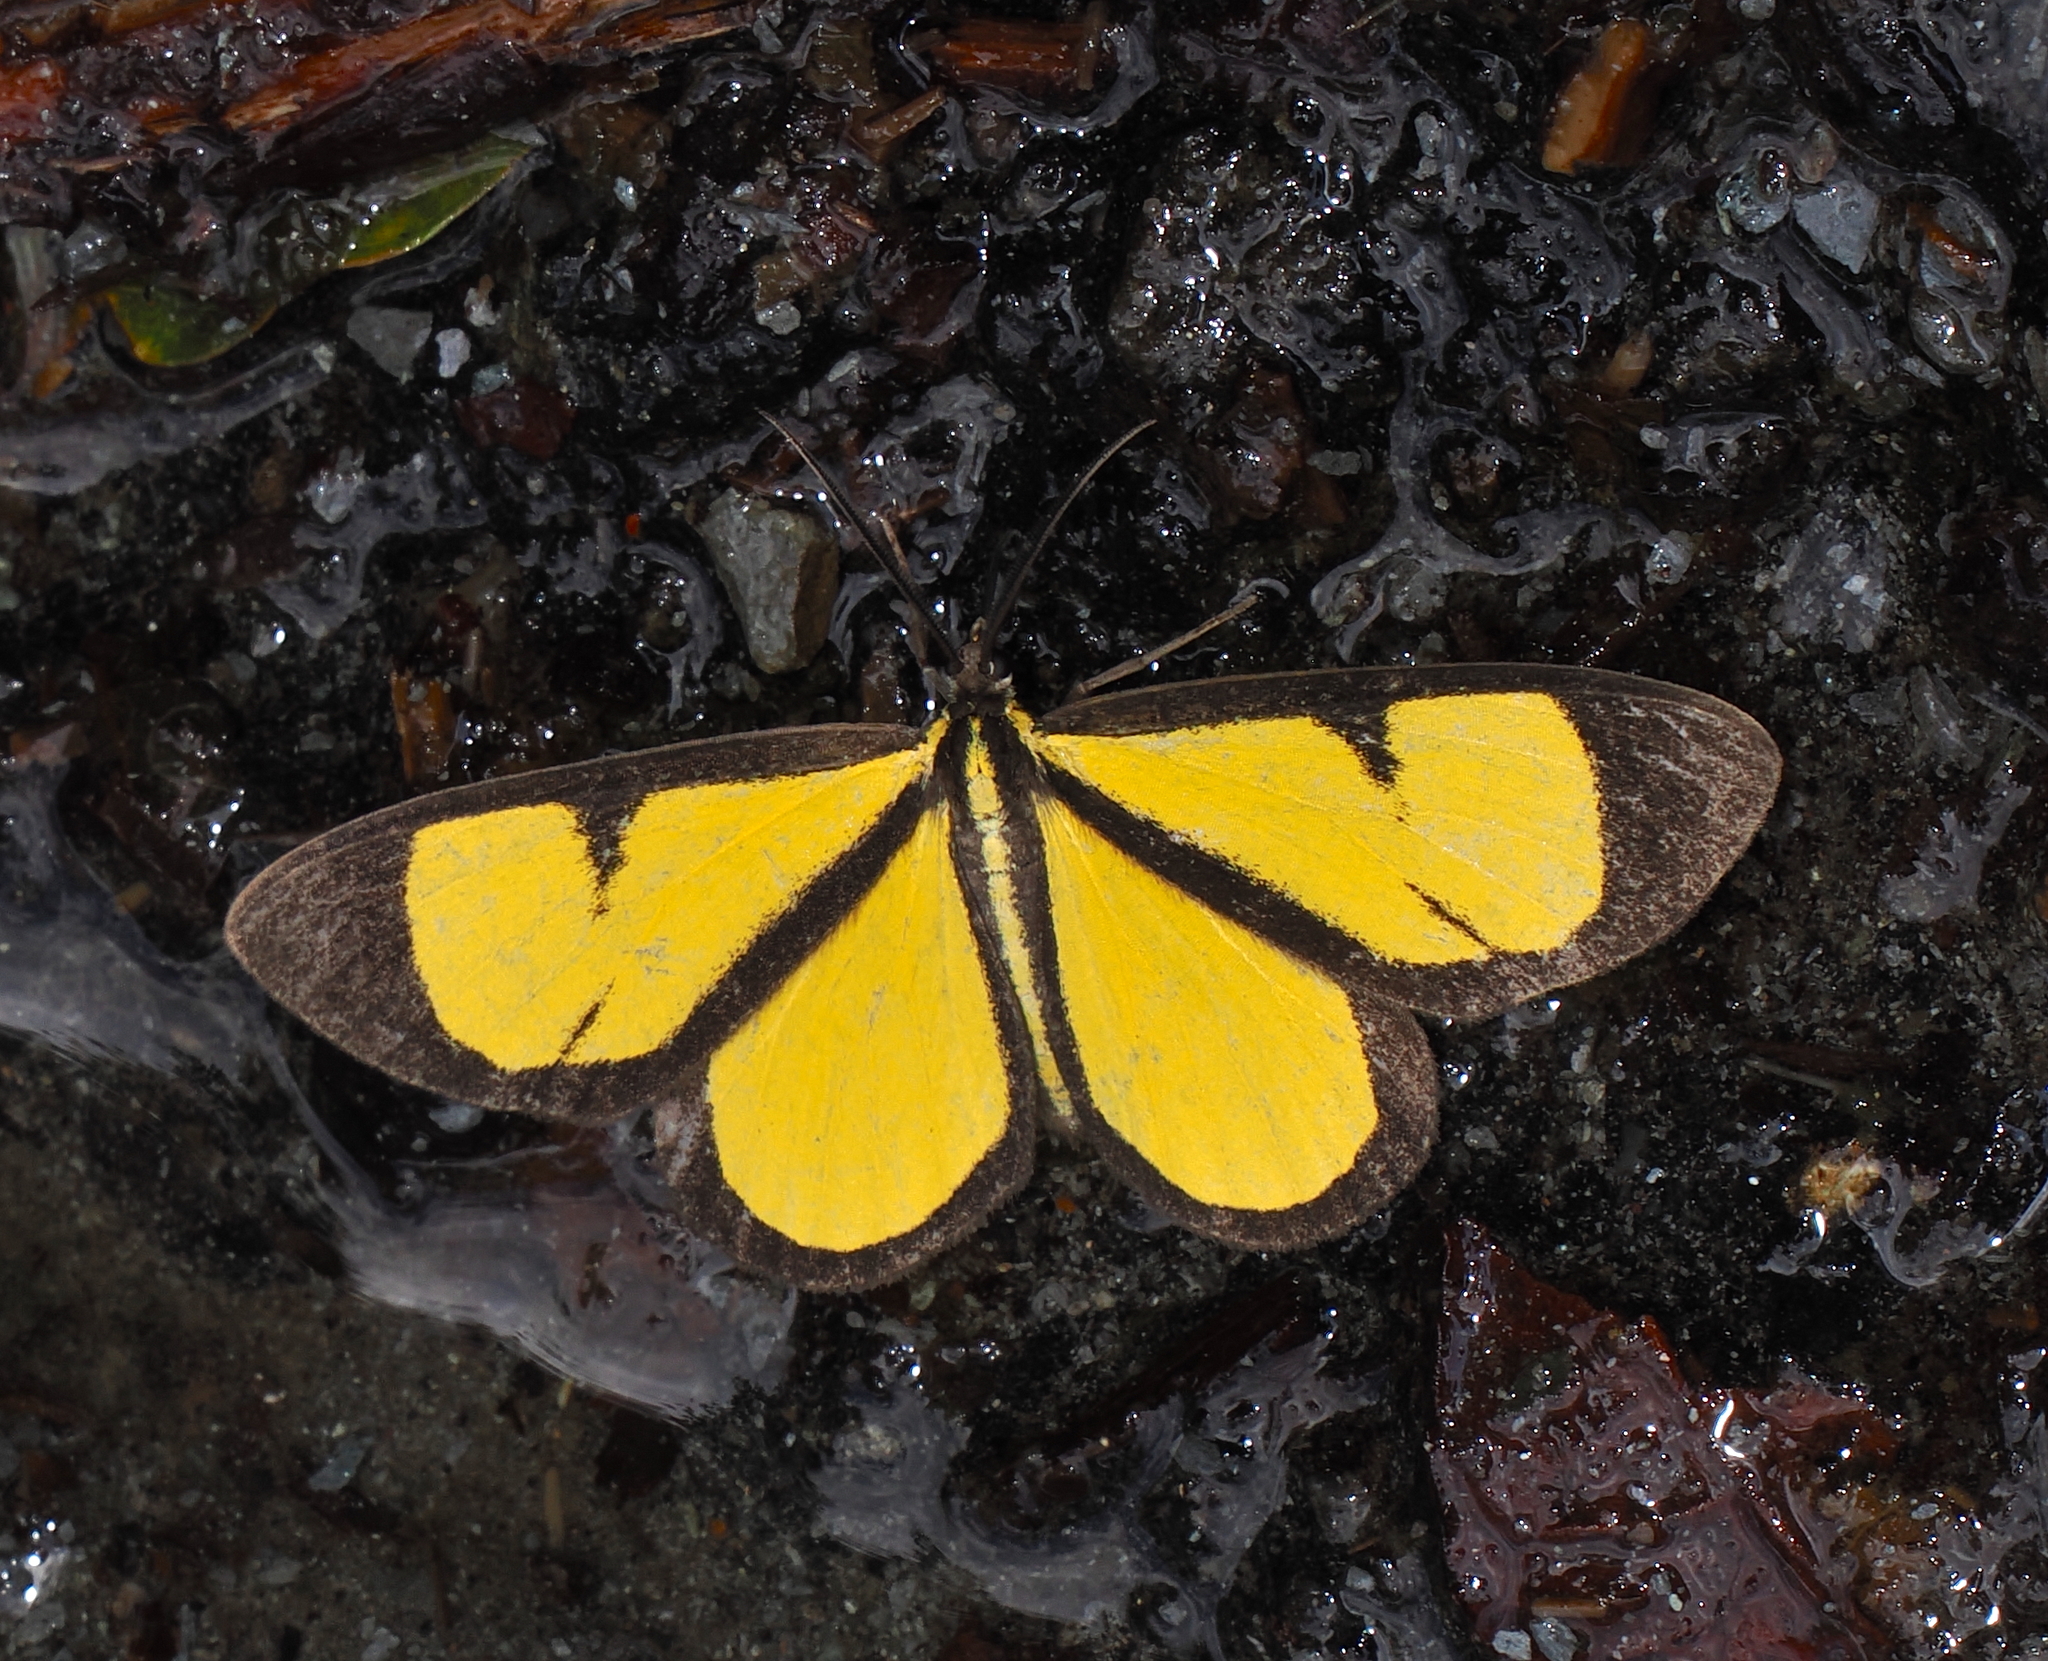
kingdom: Animalia
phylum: Arthropoda
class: Insecta
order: Lepidoptera
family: Geometridae
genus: Smicropus
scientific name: Smicropus bogotensis
